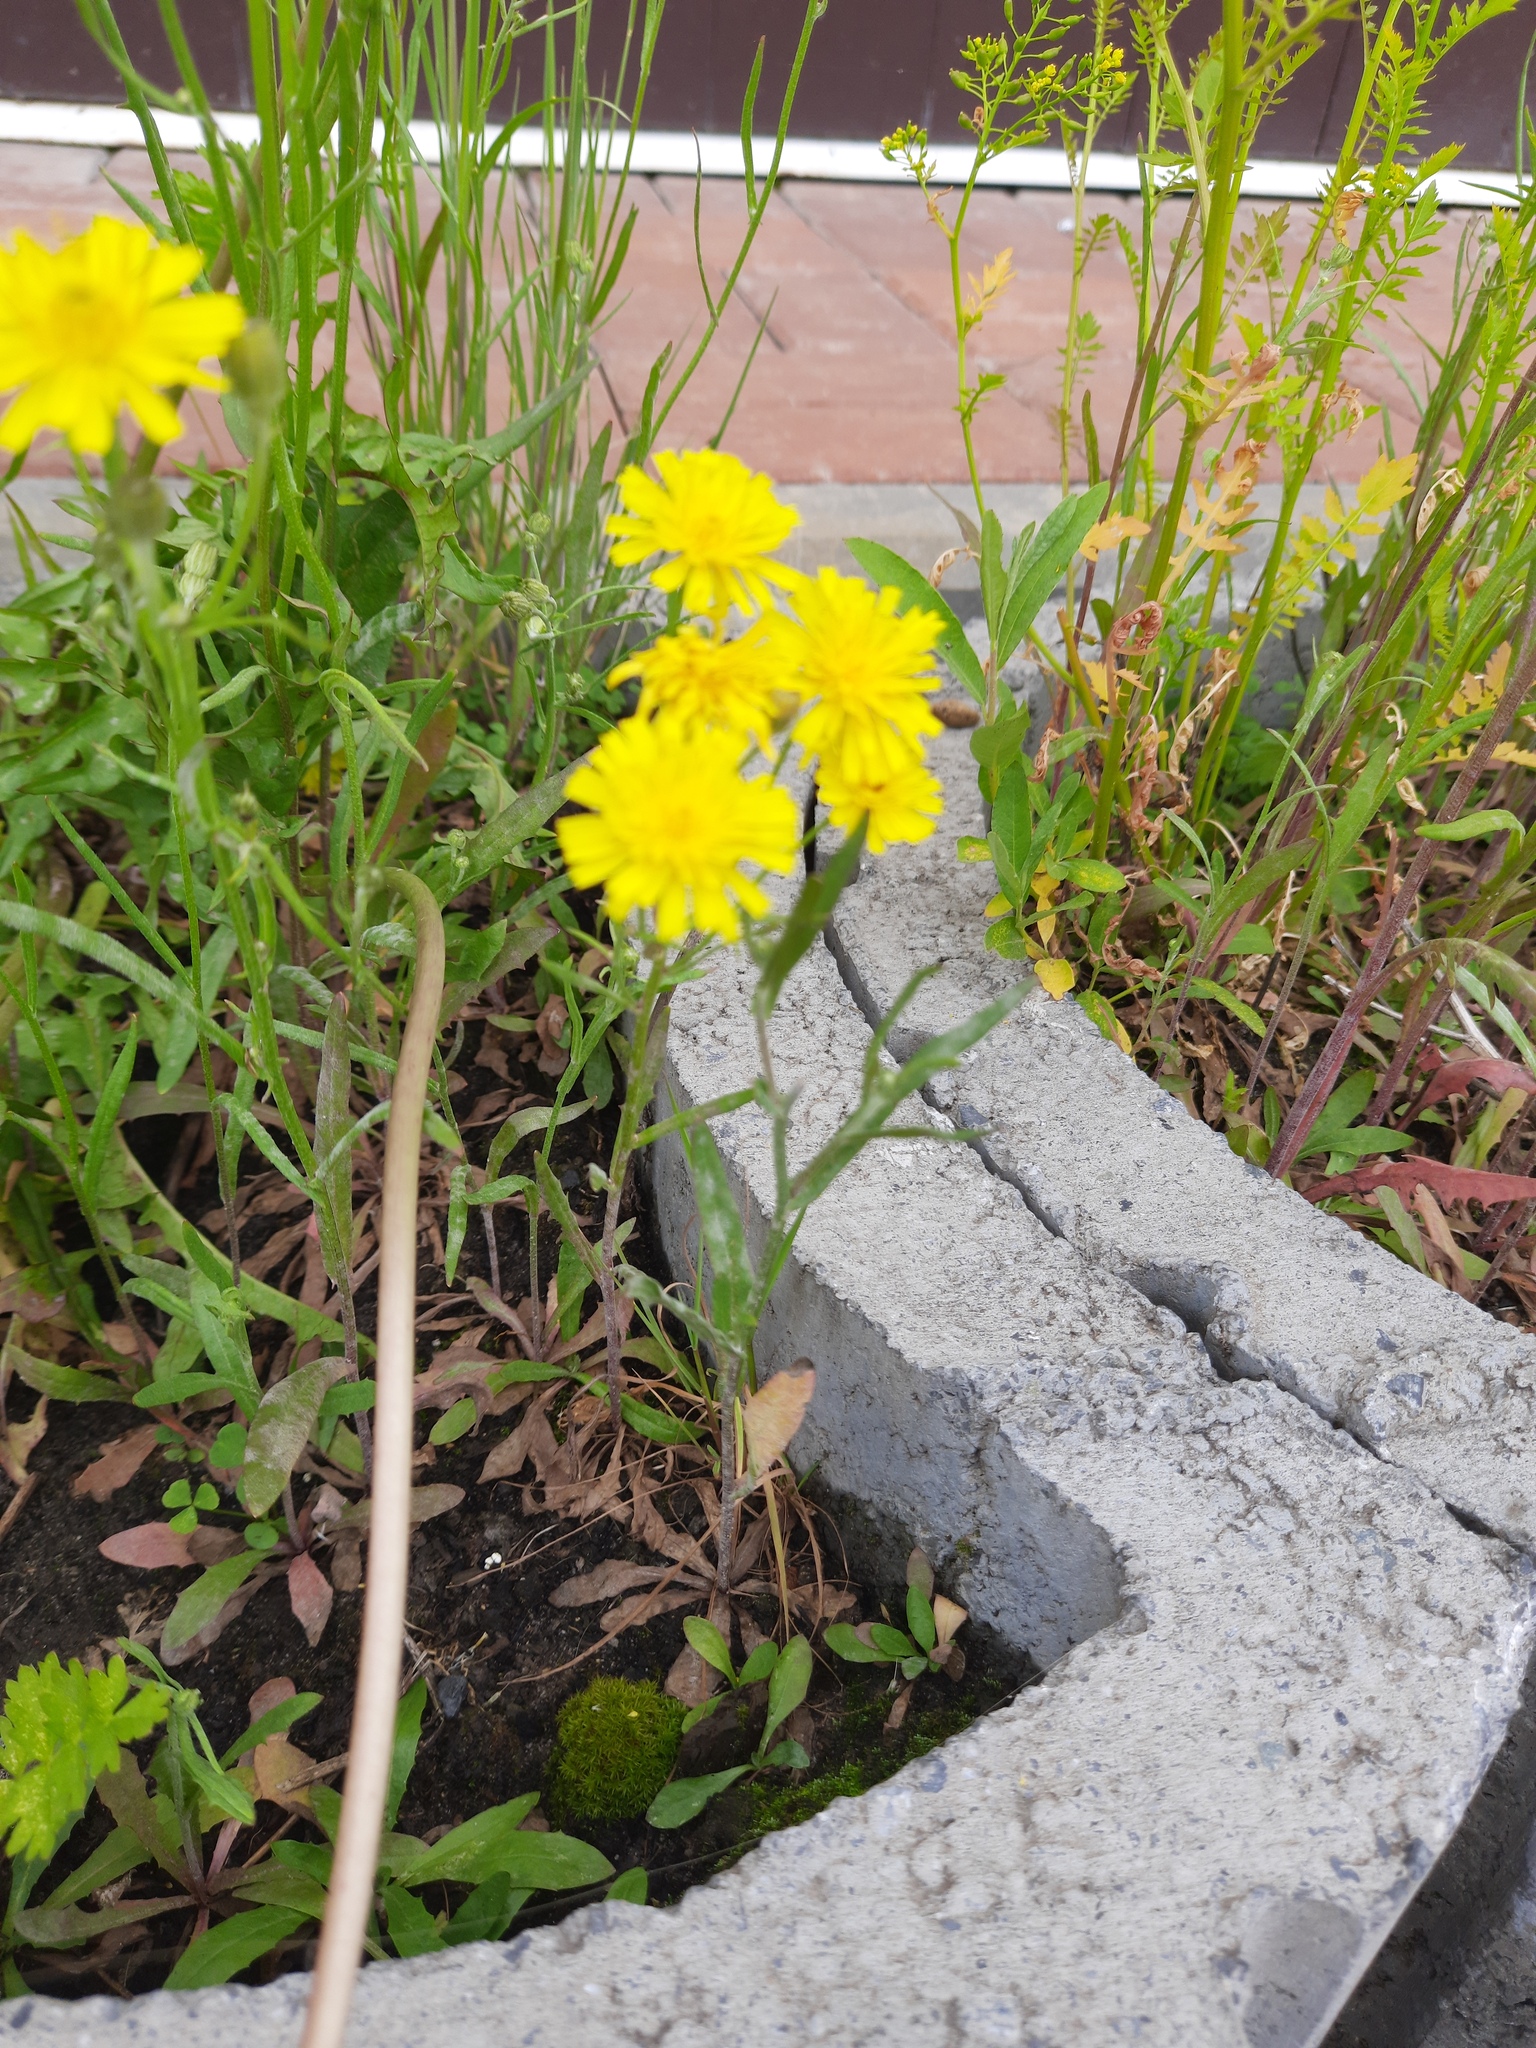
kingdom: Plantae
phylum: Tracheophyta
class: Magnoliopsida
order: Asterales
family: Asteraceae
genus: Crepis
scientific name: Crepis tectorum
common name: Narrow-leaved hawk's-beard
